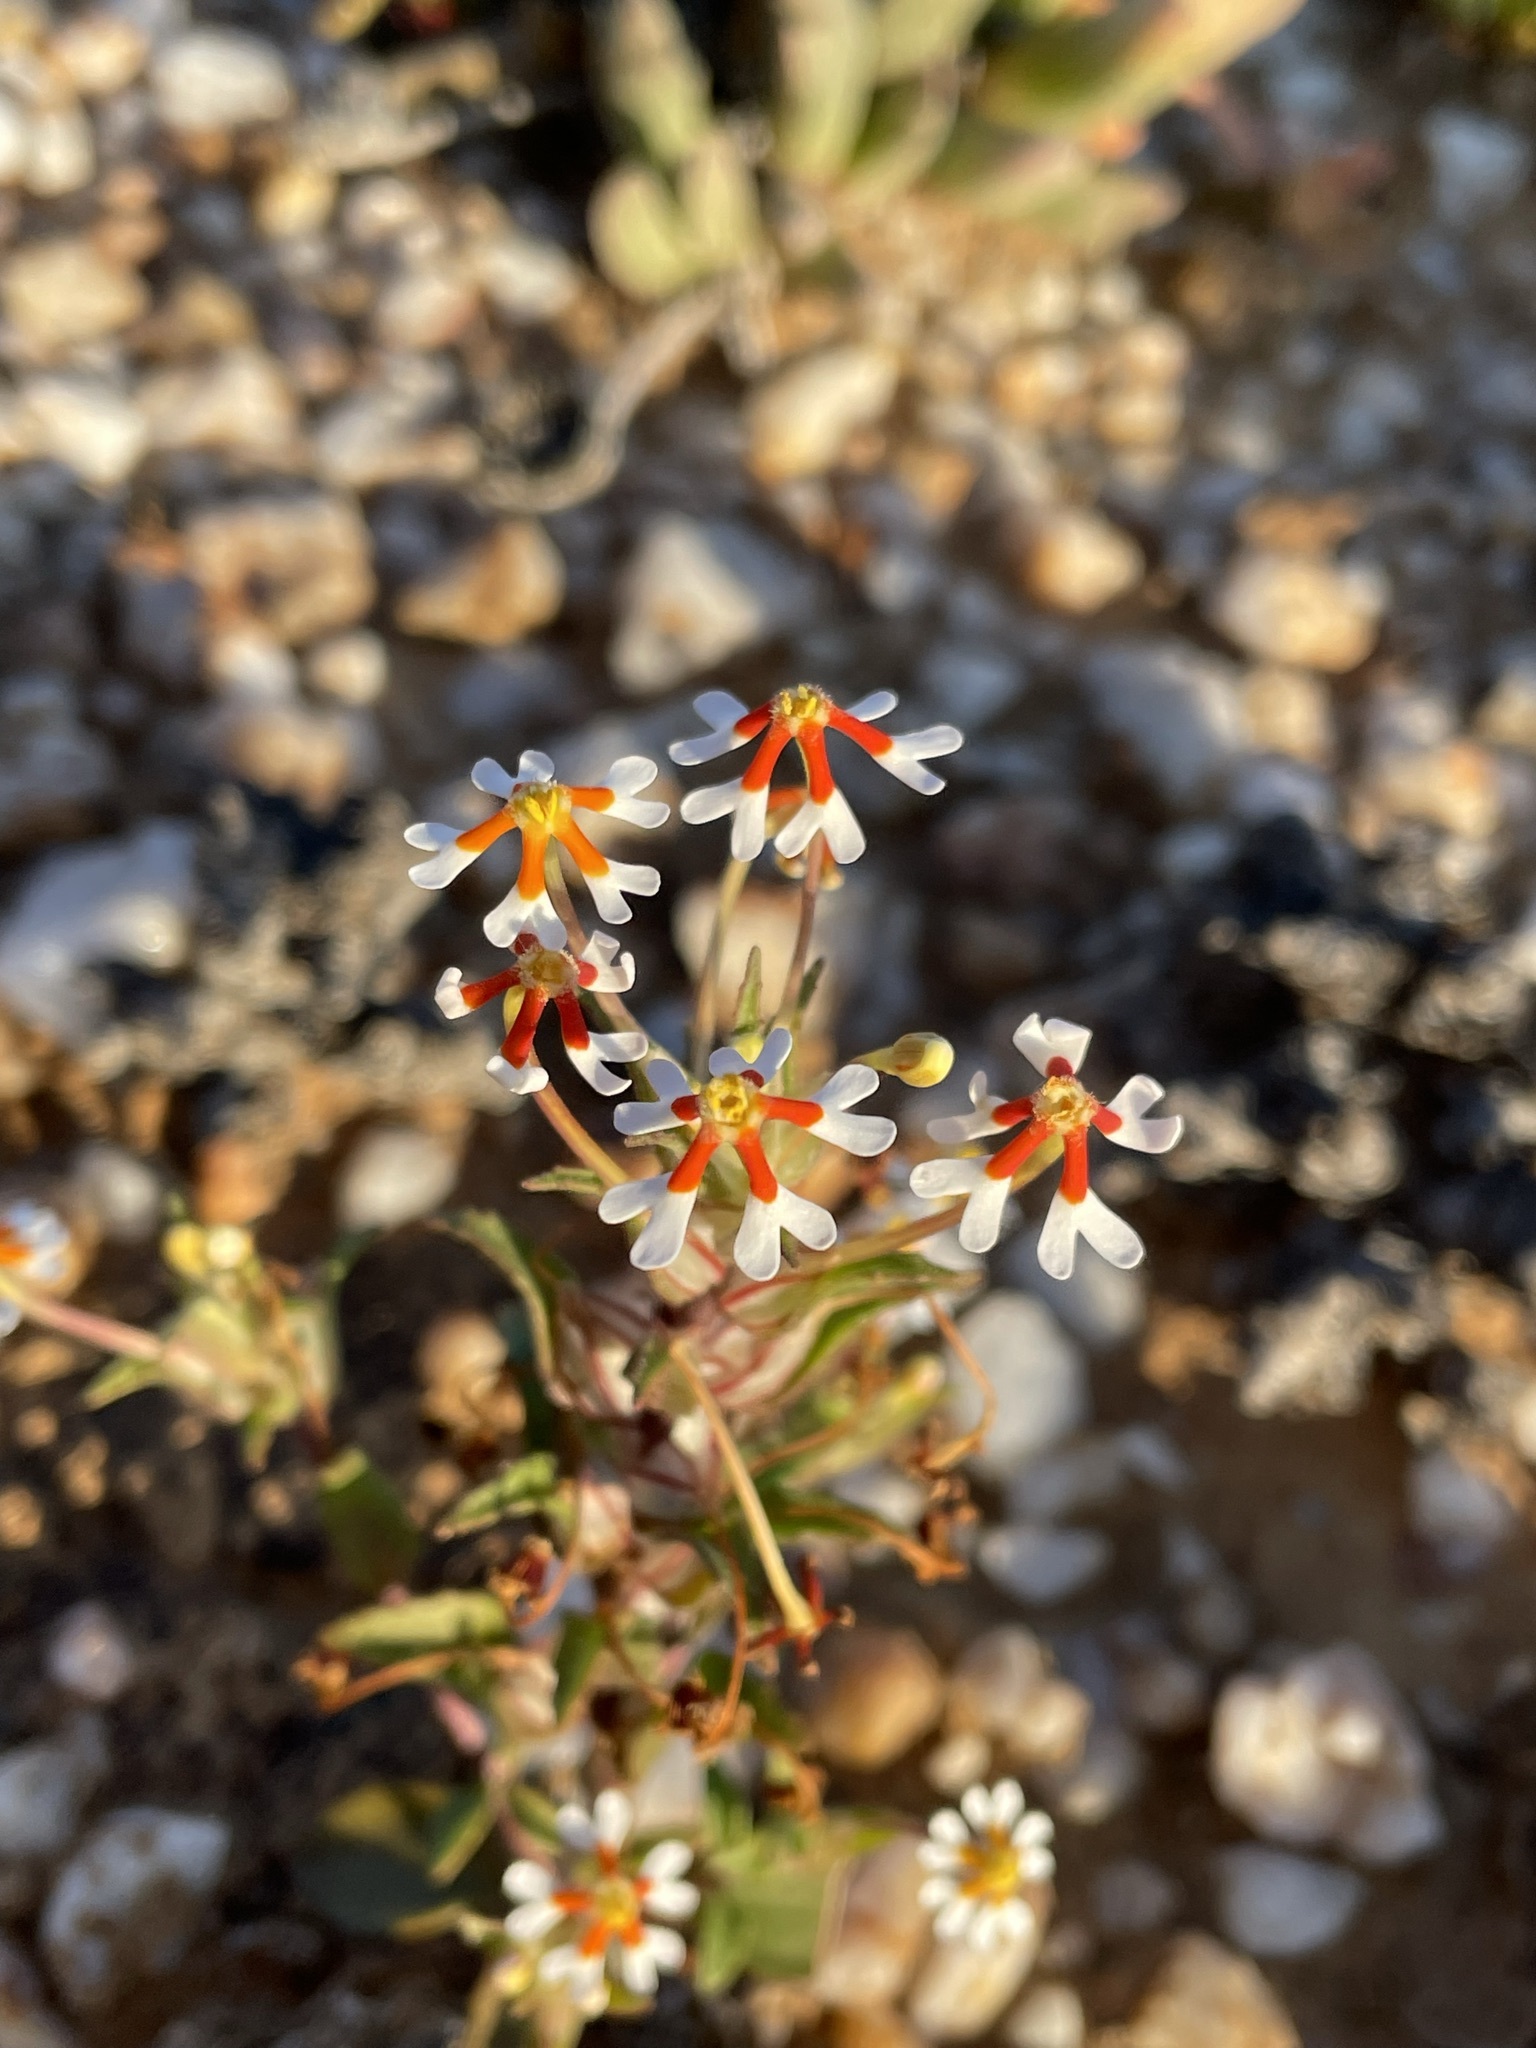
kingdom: Plantae
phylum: Tracheophyta
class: Magnoliopsida
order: Lamiales
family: Scrophulariaceae
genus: Zaluzianskya
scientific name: Zaluzianskya pumila
